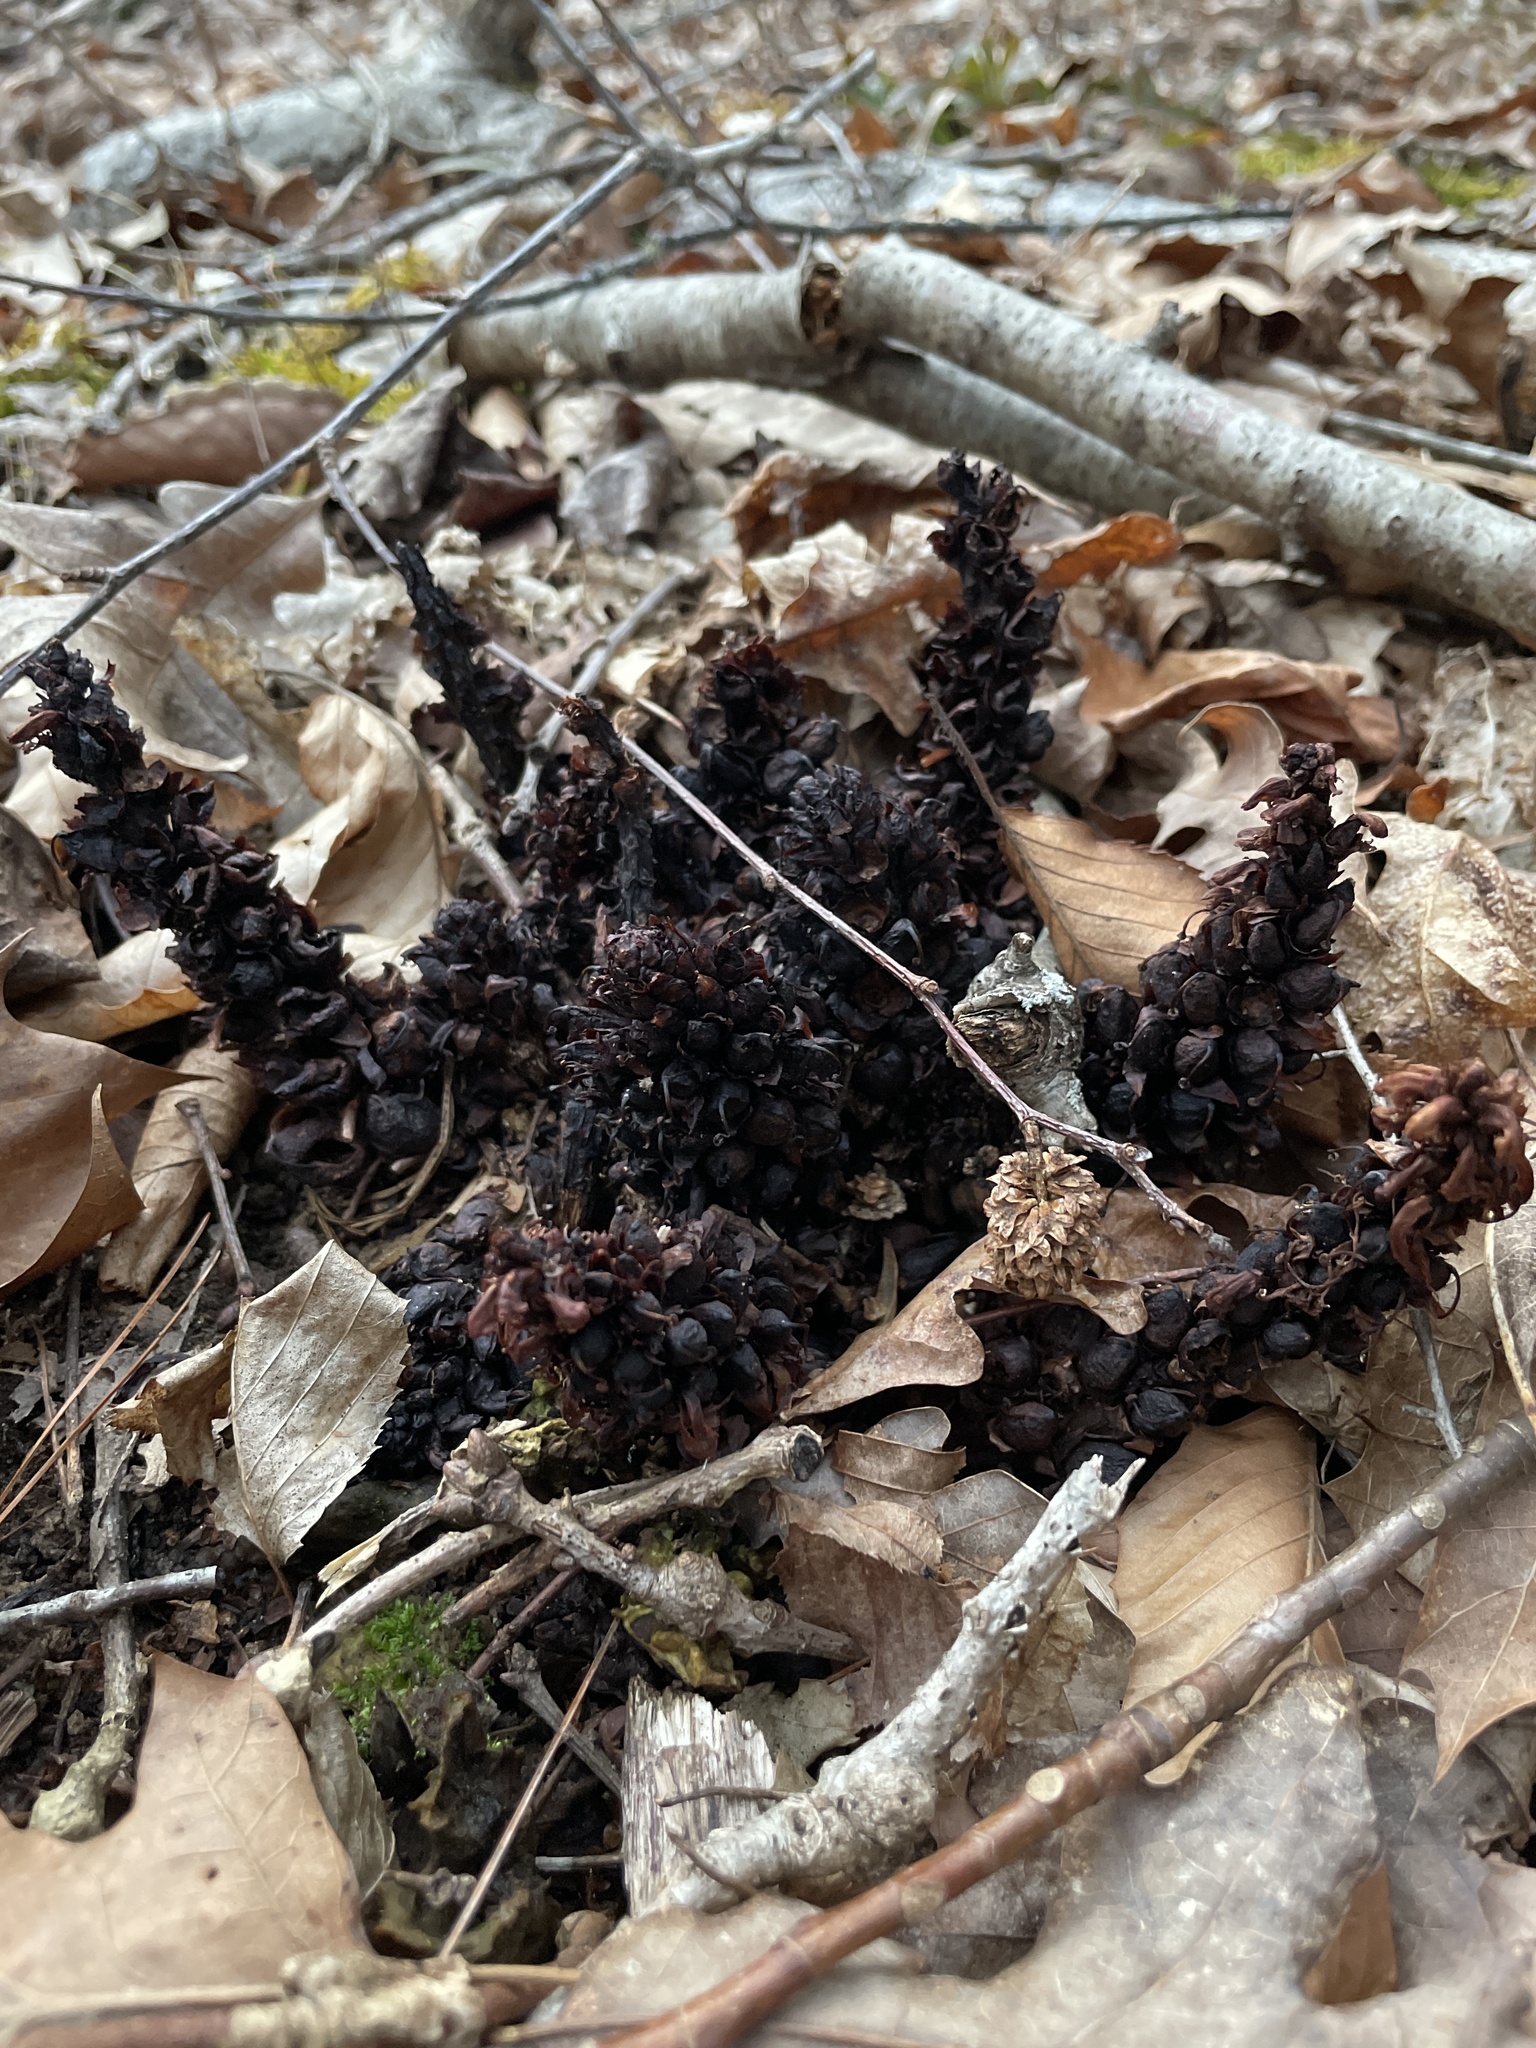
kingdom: Plantae
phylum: Tracheophyta
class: Magnoliopsida
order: Lamiales
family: Orobanchaceae
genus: Conopholis
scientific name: Conopholis americana
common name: American cancer-root
